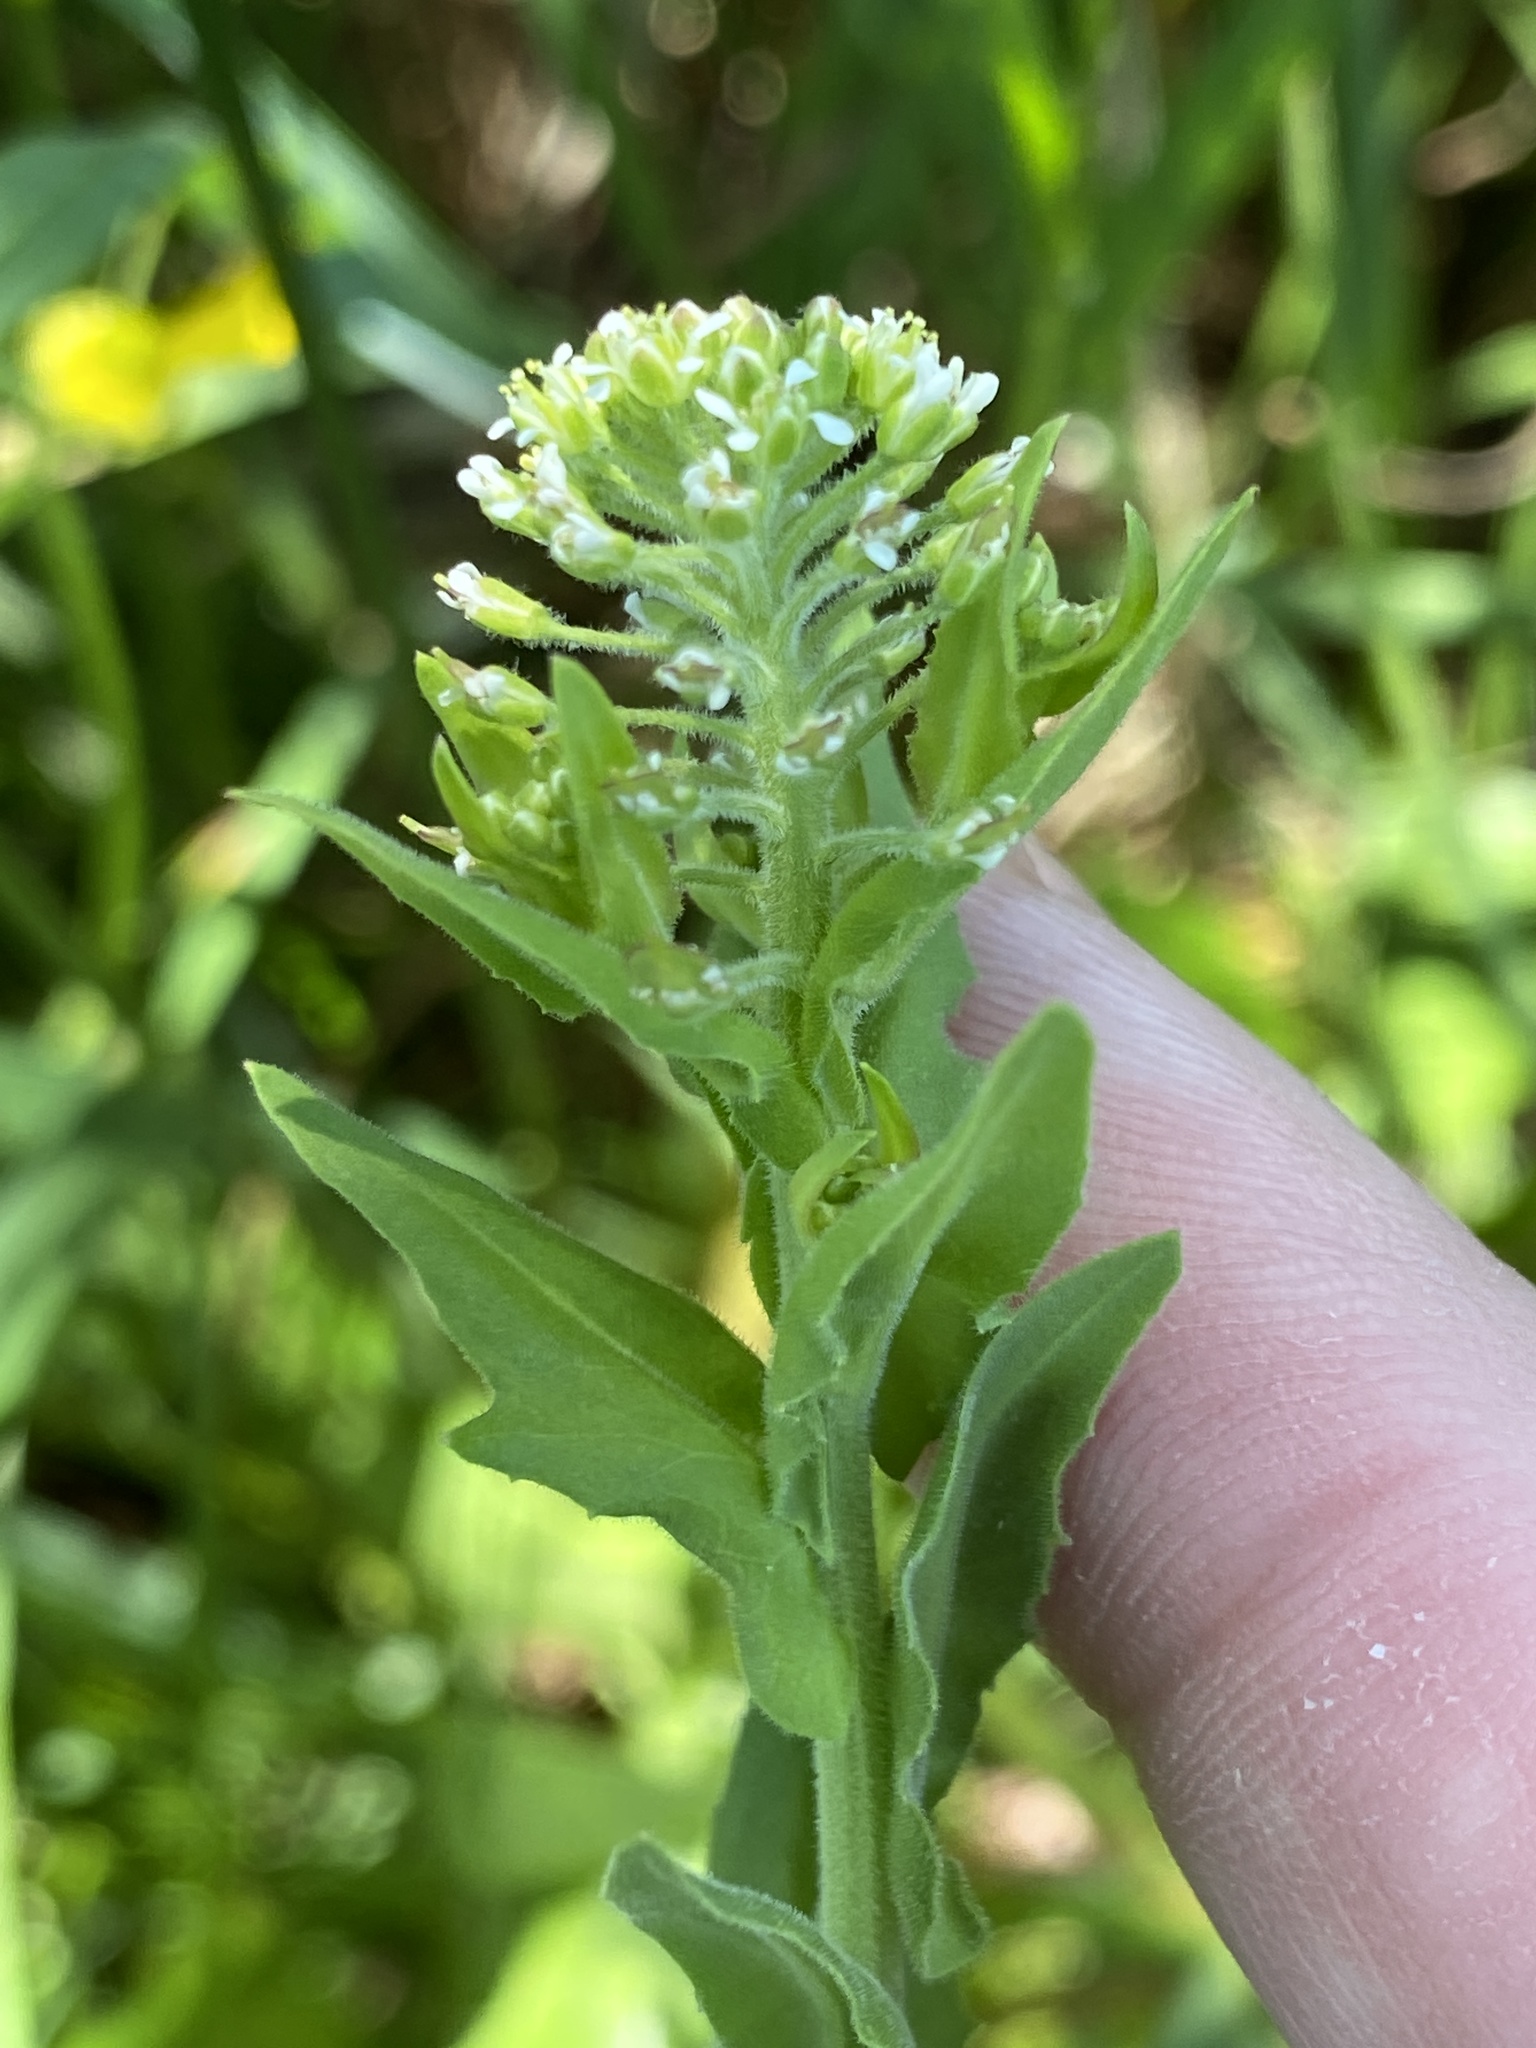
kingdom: Plantae
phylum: Tracheophyta
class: Magnoliopsida
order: Brassicales
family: Brassicaceae
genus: Lepidium
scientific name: Lepidium campestre
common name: Field pepperwort
